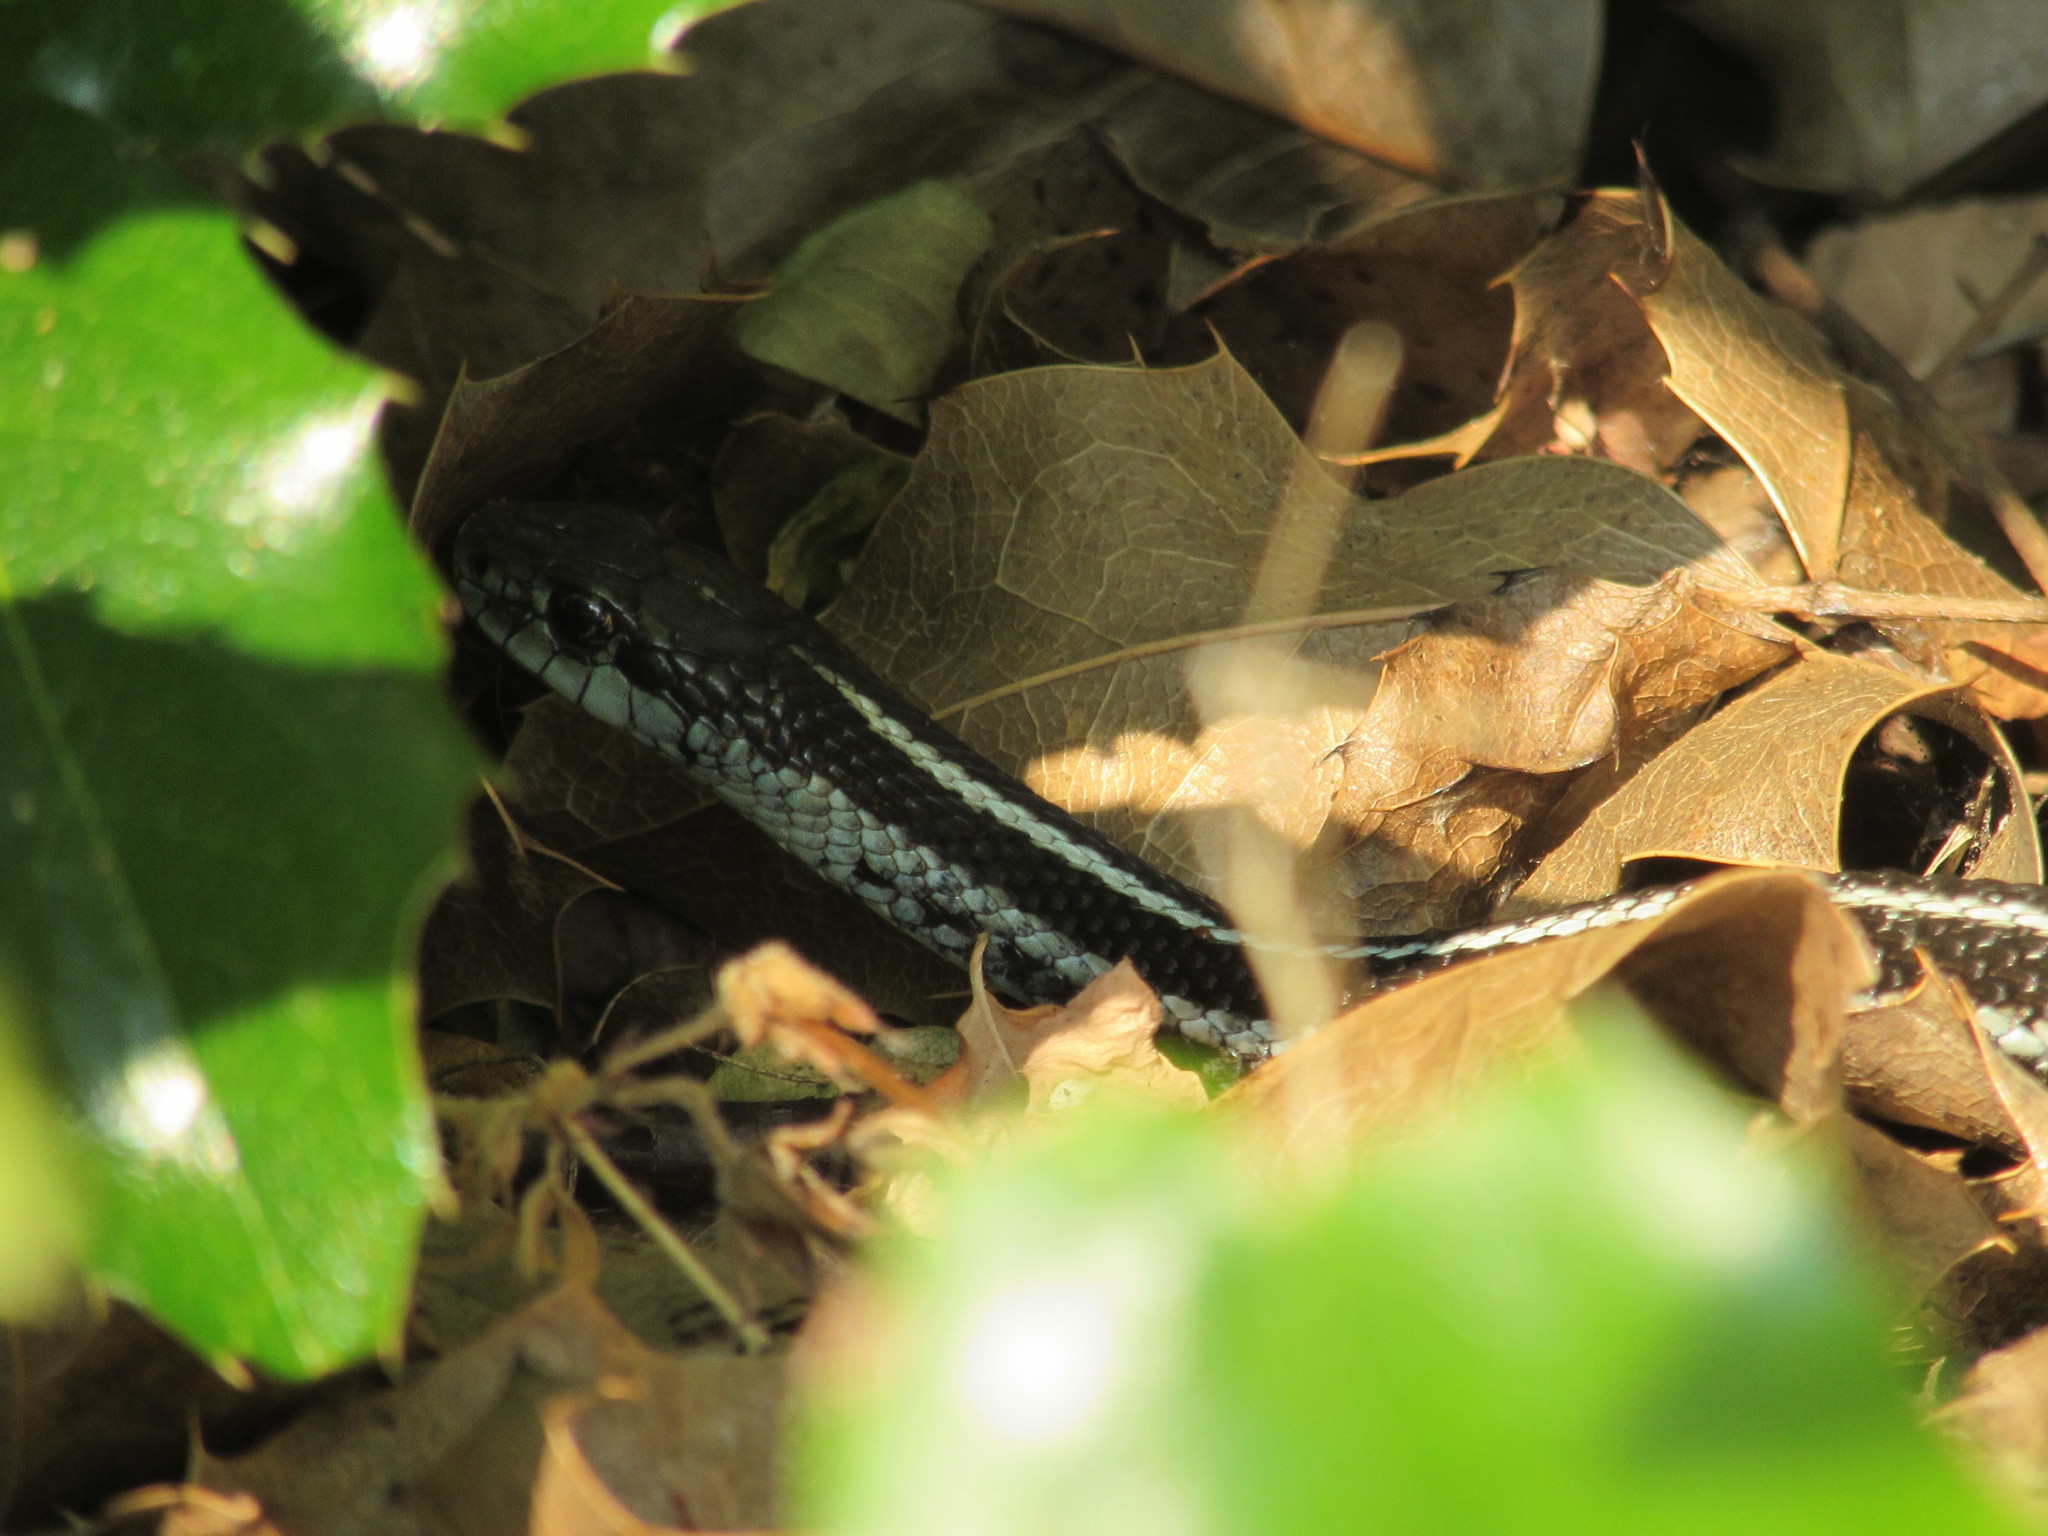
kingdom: Animalia
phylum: Chordata
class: Squamata
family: Colubridae
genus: Thamnophis
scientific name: Thamnophis sirtalis
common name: Common garter snake
